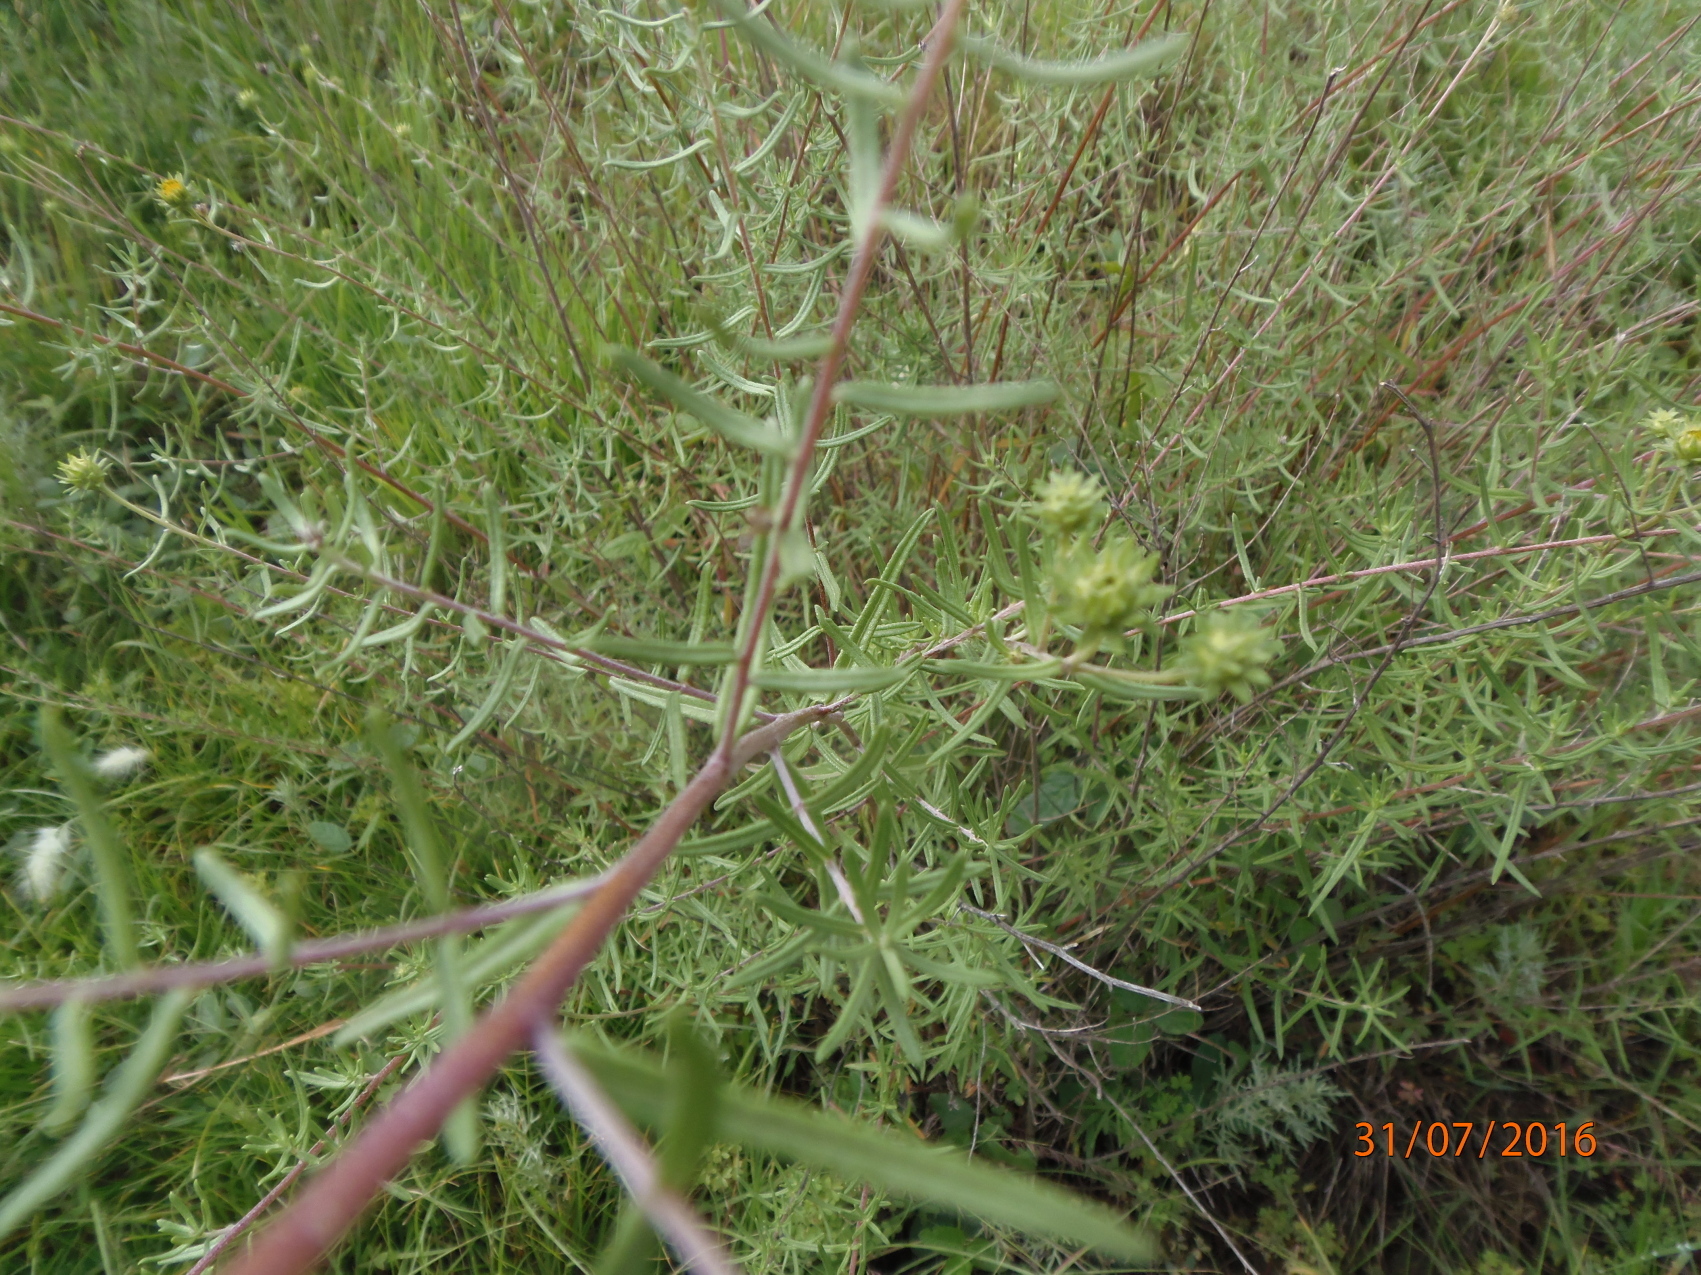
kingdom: Plantae
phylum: Tracheophyta
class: Magnoliopsida
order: Asterales
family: Asteraceae
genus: Aldama
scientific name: Aldama linearis
